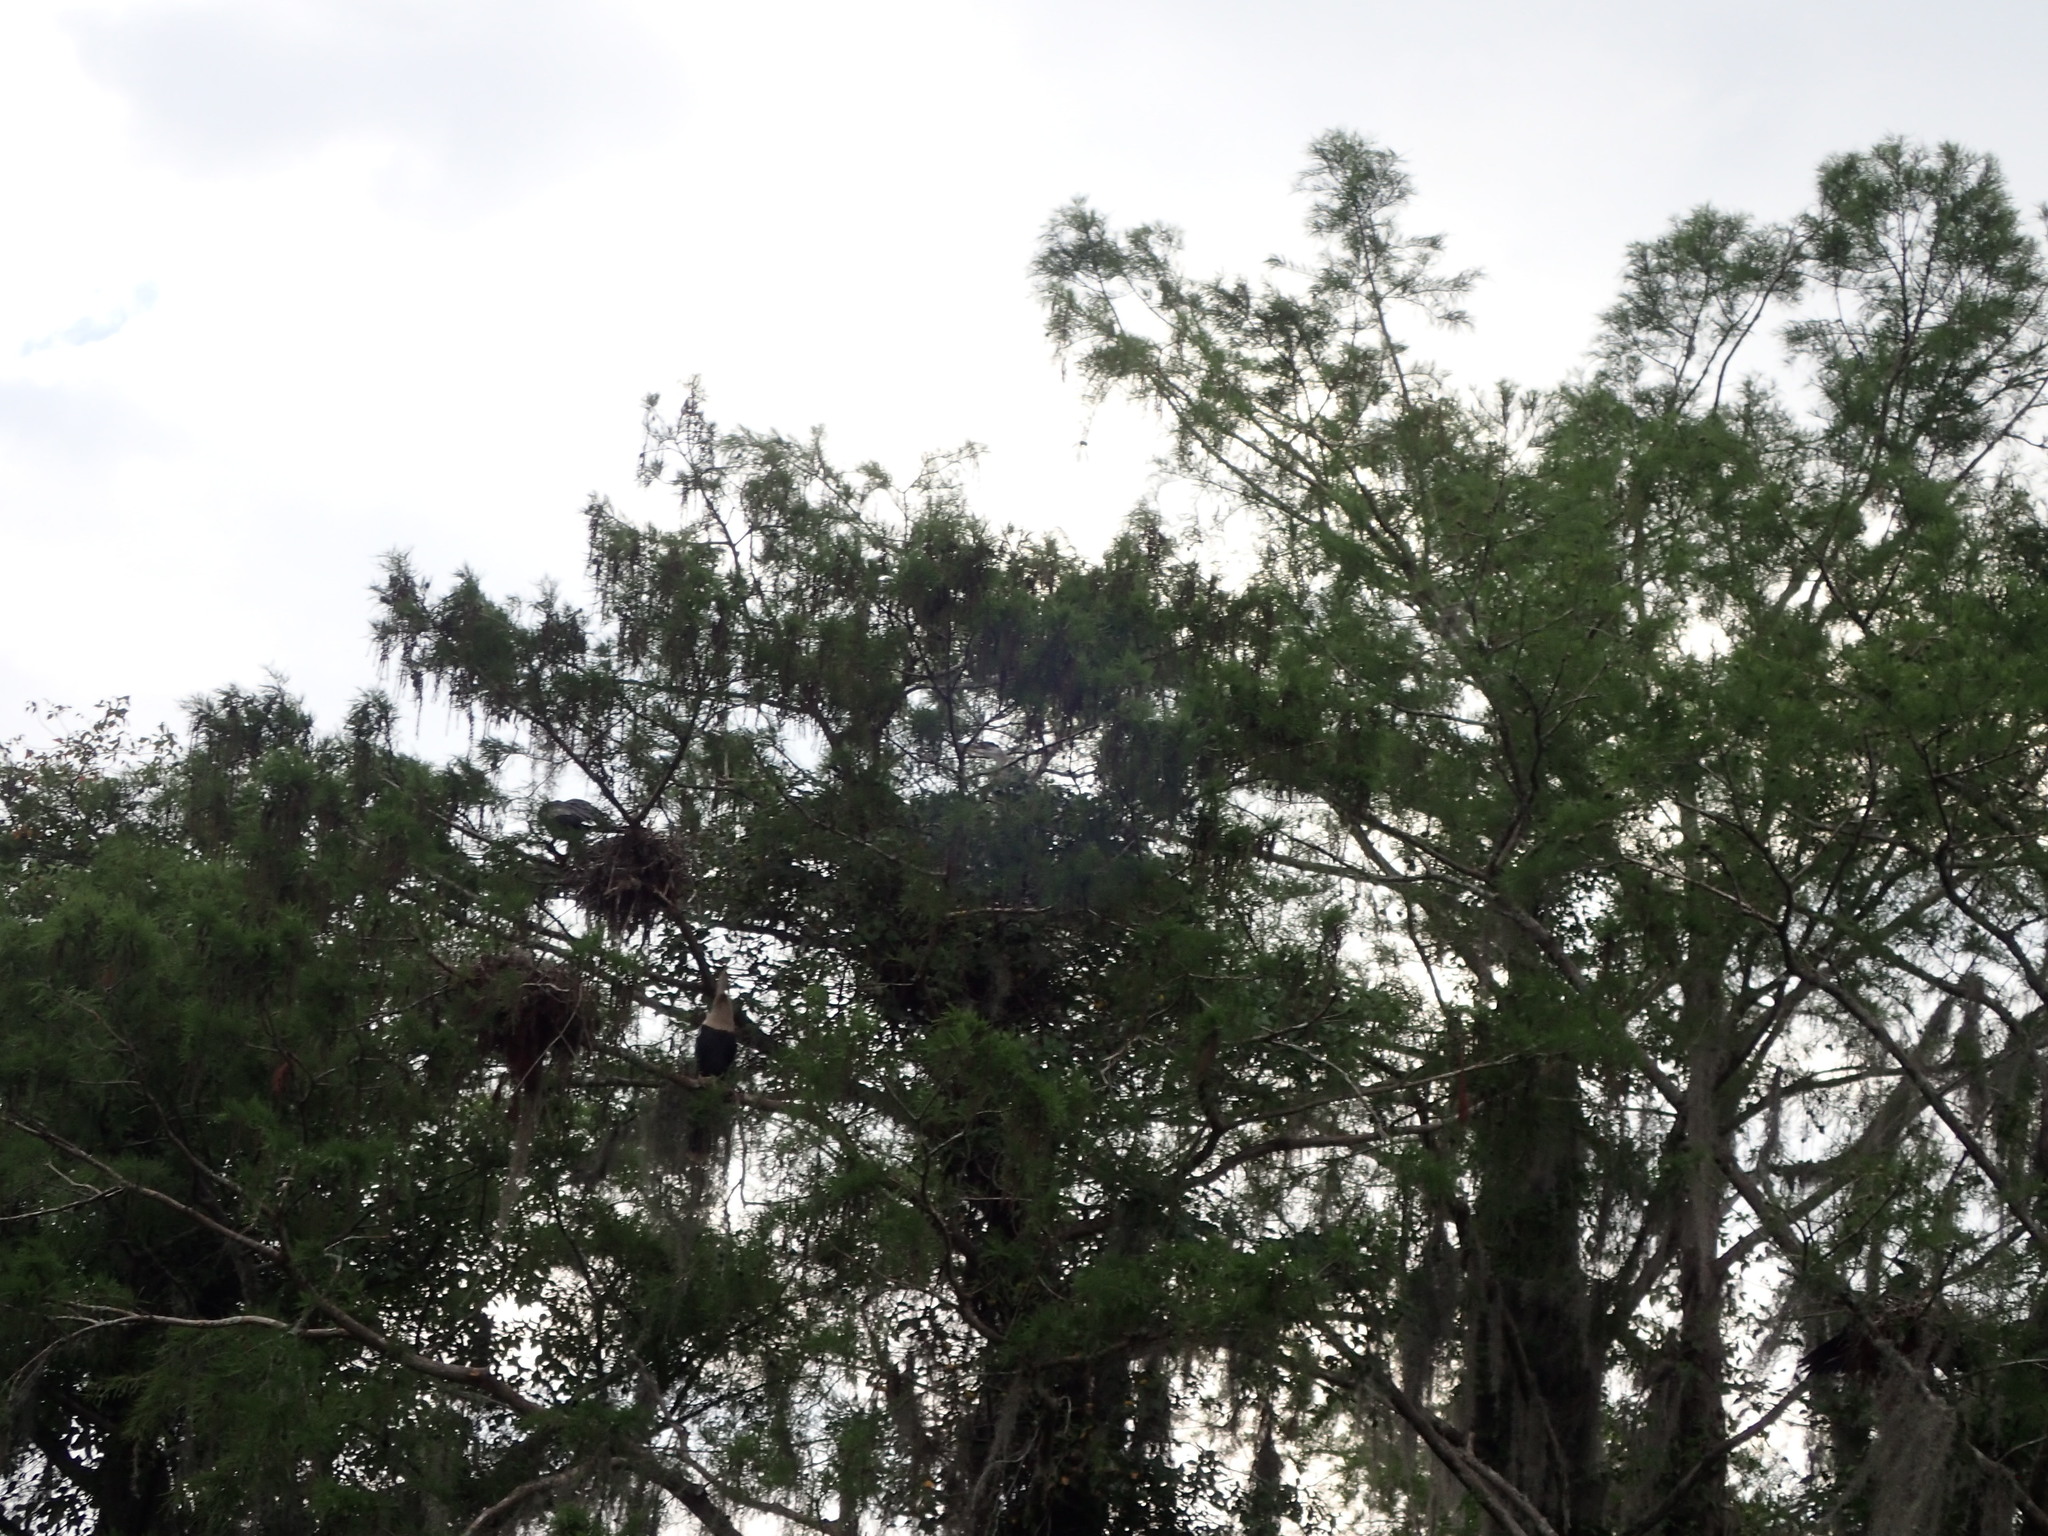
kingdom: Animalia
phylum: Chordata
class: Aves
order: Pelecaniformes
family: Ardeidae
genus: Ardea
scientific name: Ardea herodias
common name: Great blue heron
